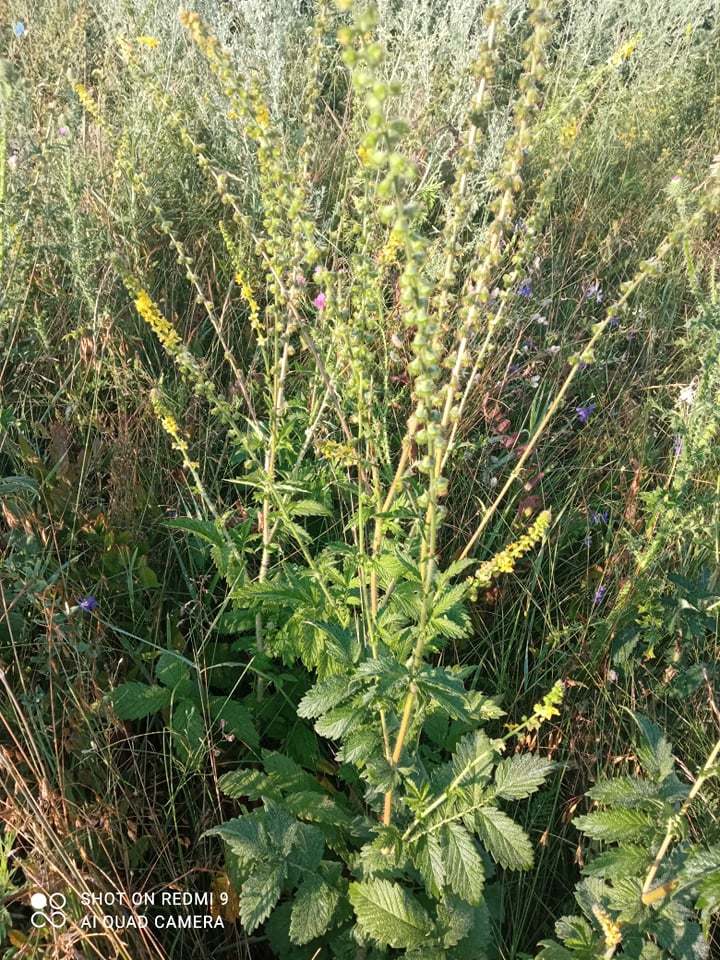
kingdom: Plantae
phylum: Tracheophyta
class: Magnoliopsida
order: Rosales
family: Rosaceae
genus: Agrimonia
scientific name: Agrimonia eupatoria
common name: Agrimony
